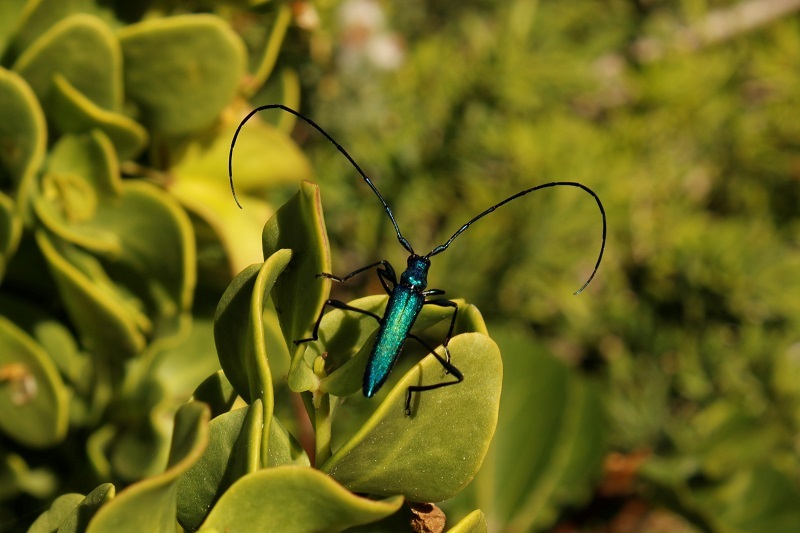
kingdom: Animalia
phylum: Arthropoda
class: Insecta
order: Coleoptera
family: Cerambycidae
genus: Promeces
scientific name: Promeces longipes
